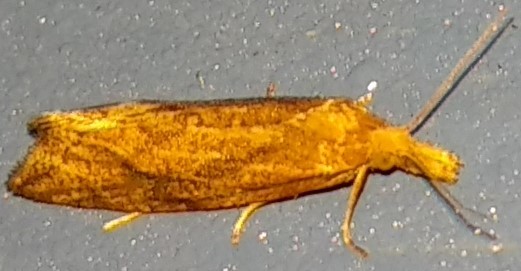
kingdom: Animalia
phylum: Arthropoda
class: Insecta
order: Lepidoptera
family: Tortricidae
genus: Aethes
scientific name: Aethes biscana
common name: Reddish aethes
